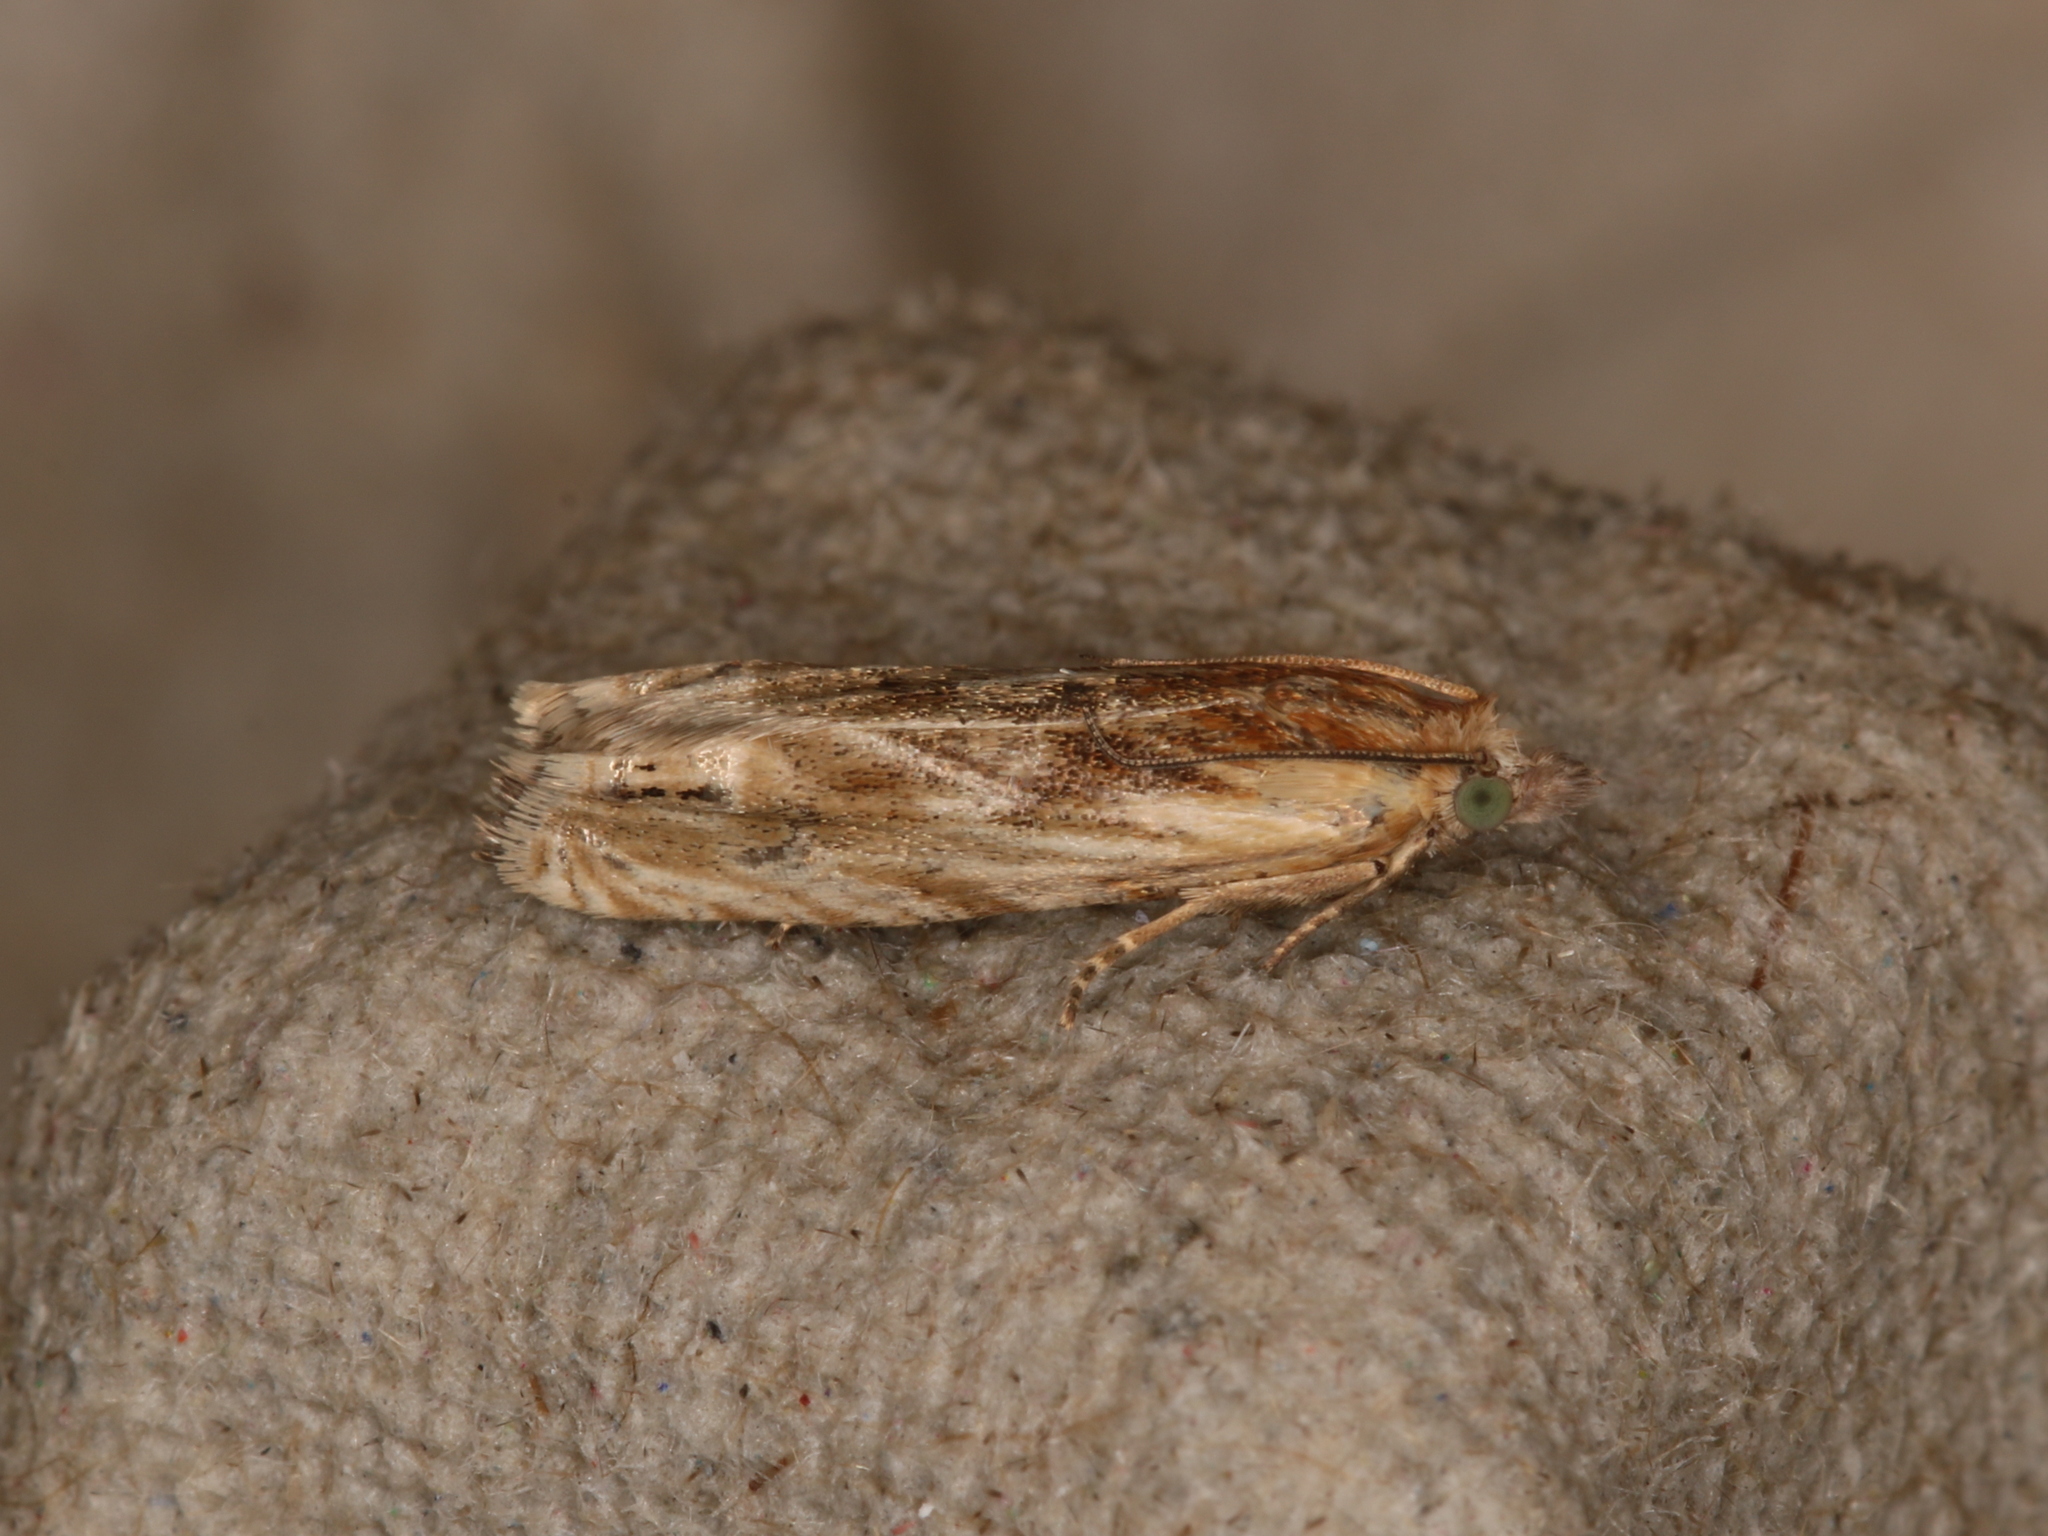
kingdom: Animalia
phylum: Arthropoda
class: Insecta
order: Lepidoptera
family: Tortricidae
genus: Eucosma
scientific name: Eucosma cana
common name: Hoary belle
